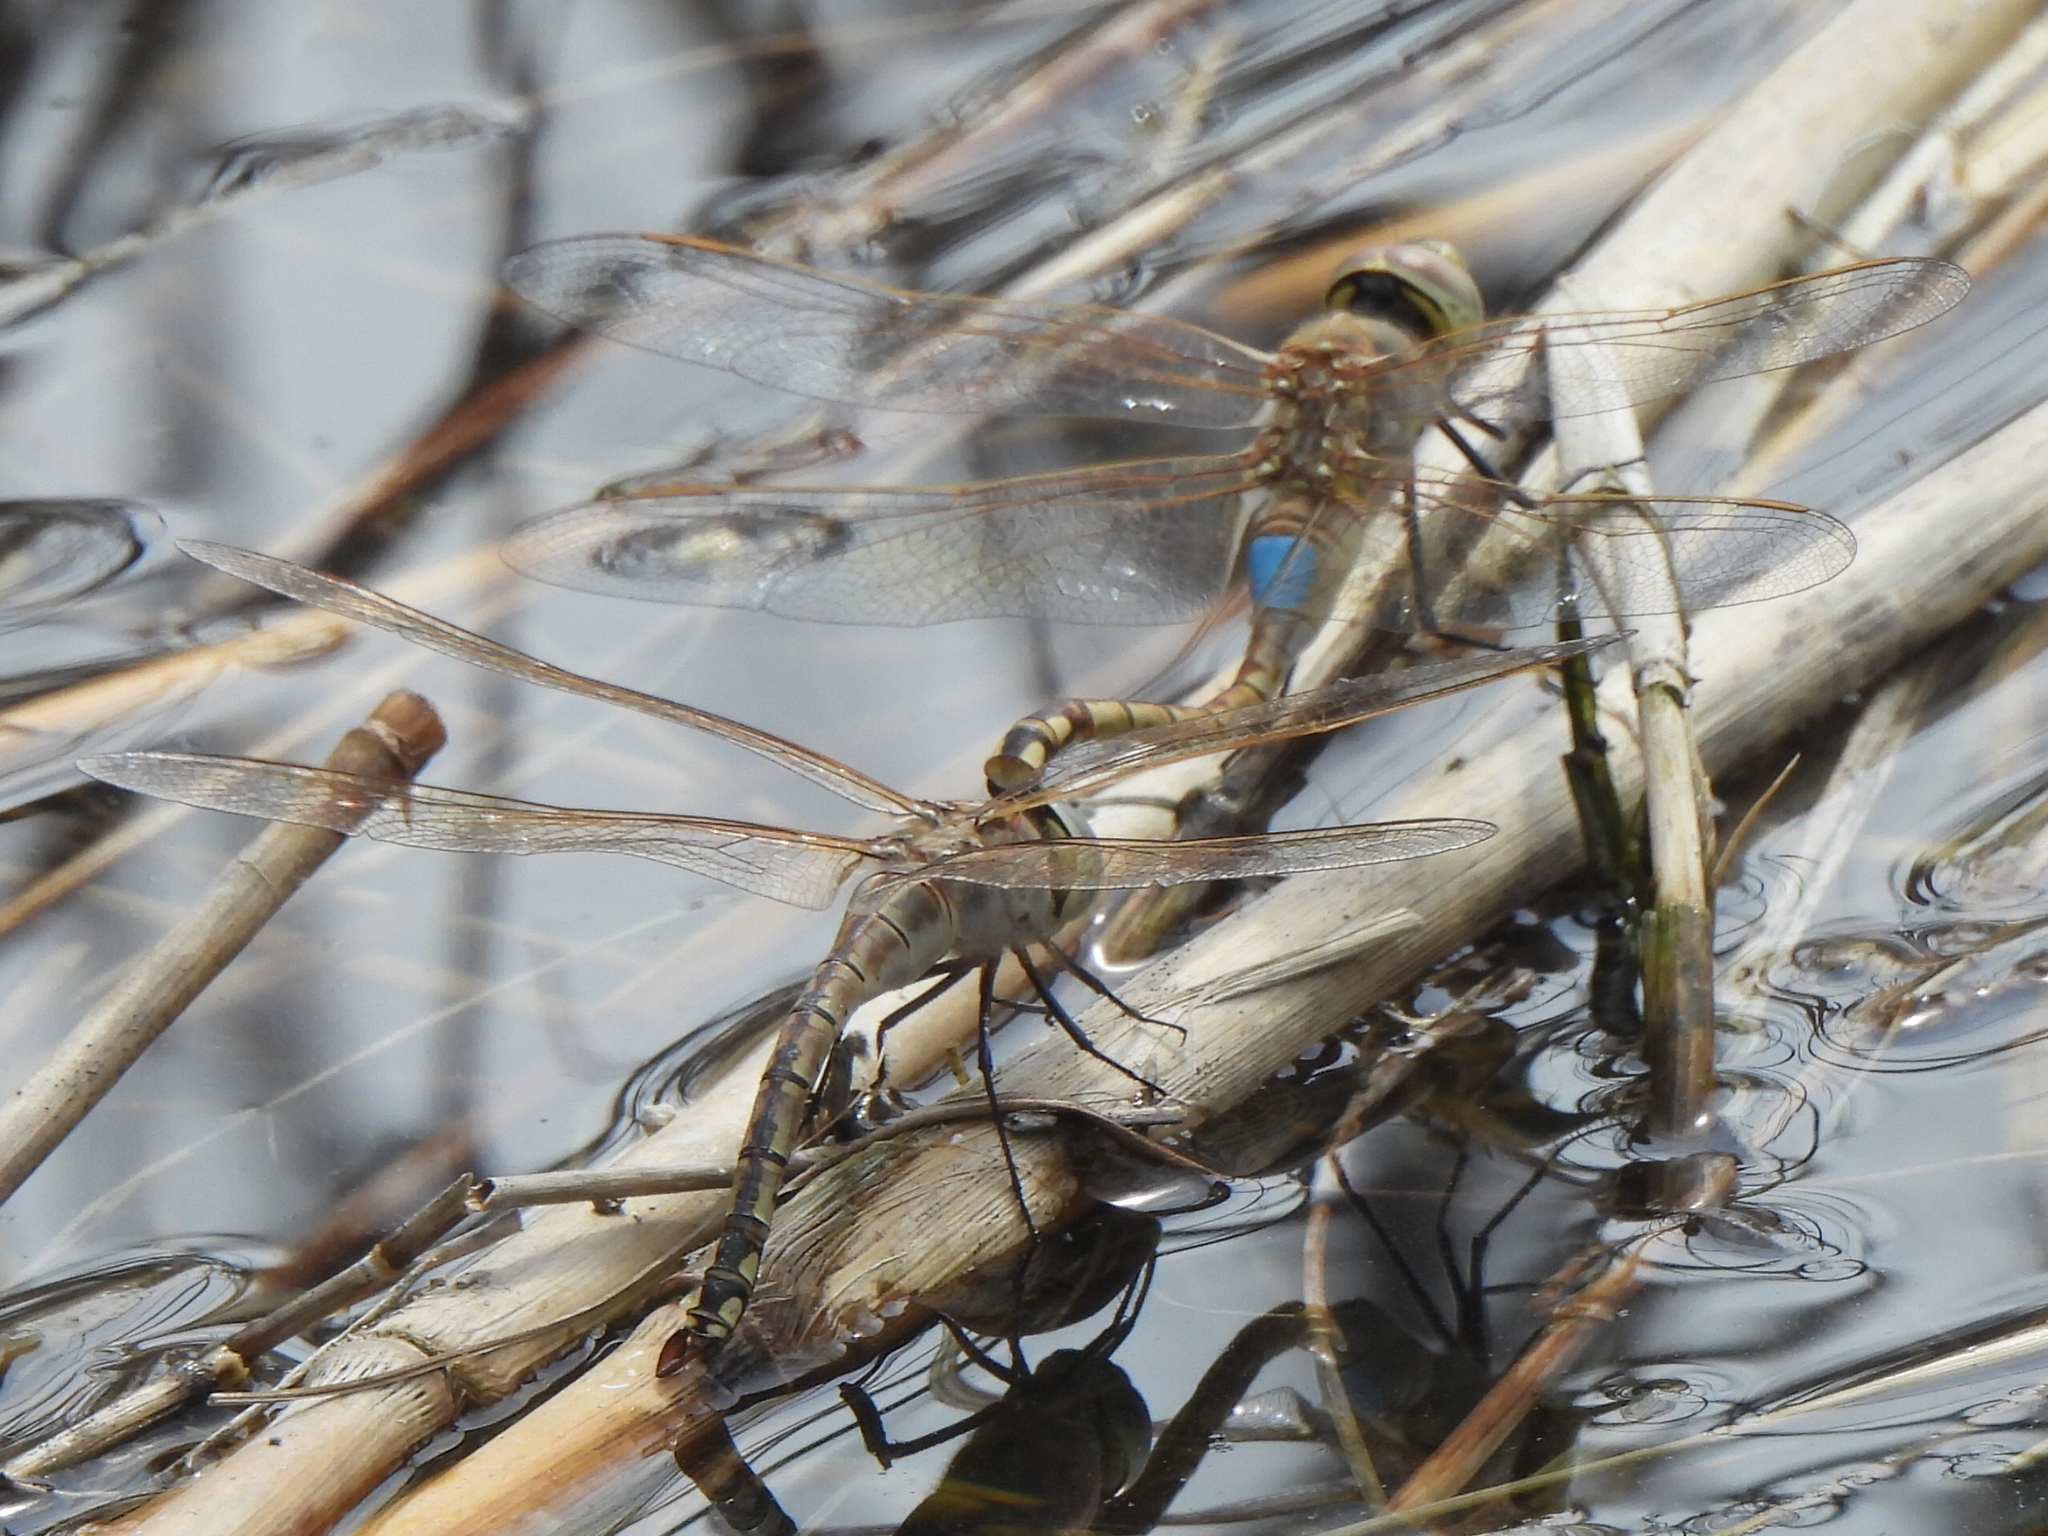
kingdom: Animalia
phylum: Arthropoda
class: Insecta
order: Odonata
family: Aeshnidae
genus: Anax
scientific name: Anax ephippiger
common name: Vagrant emperor
